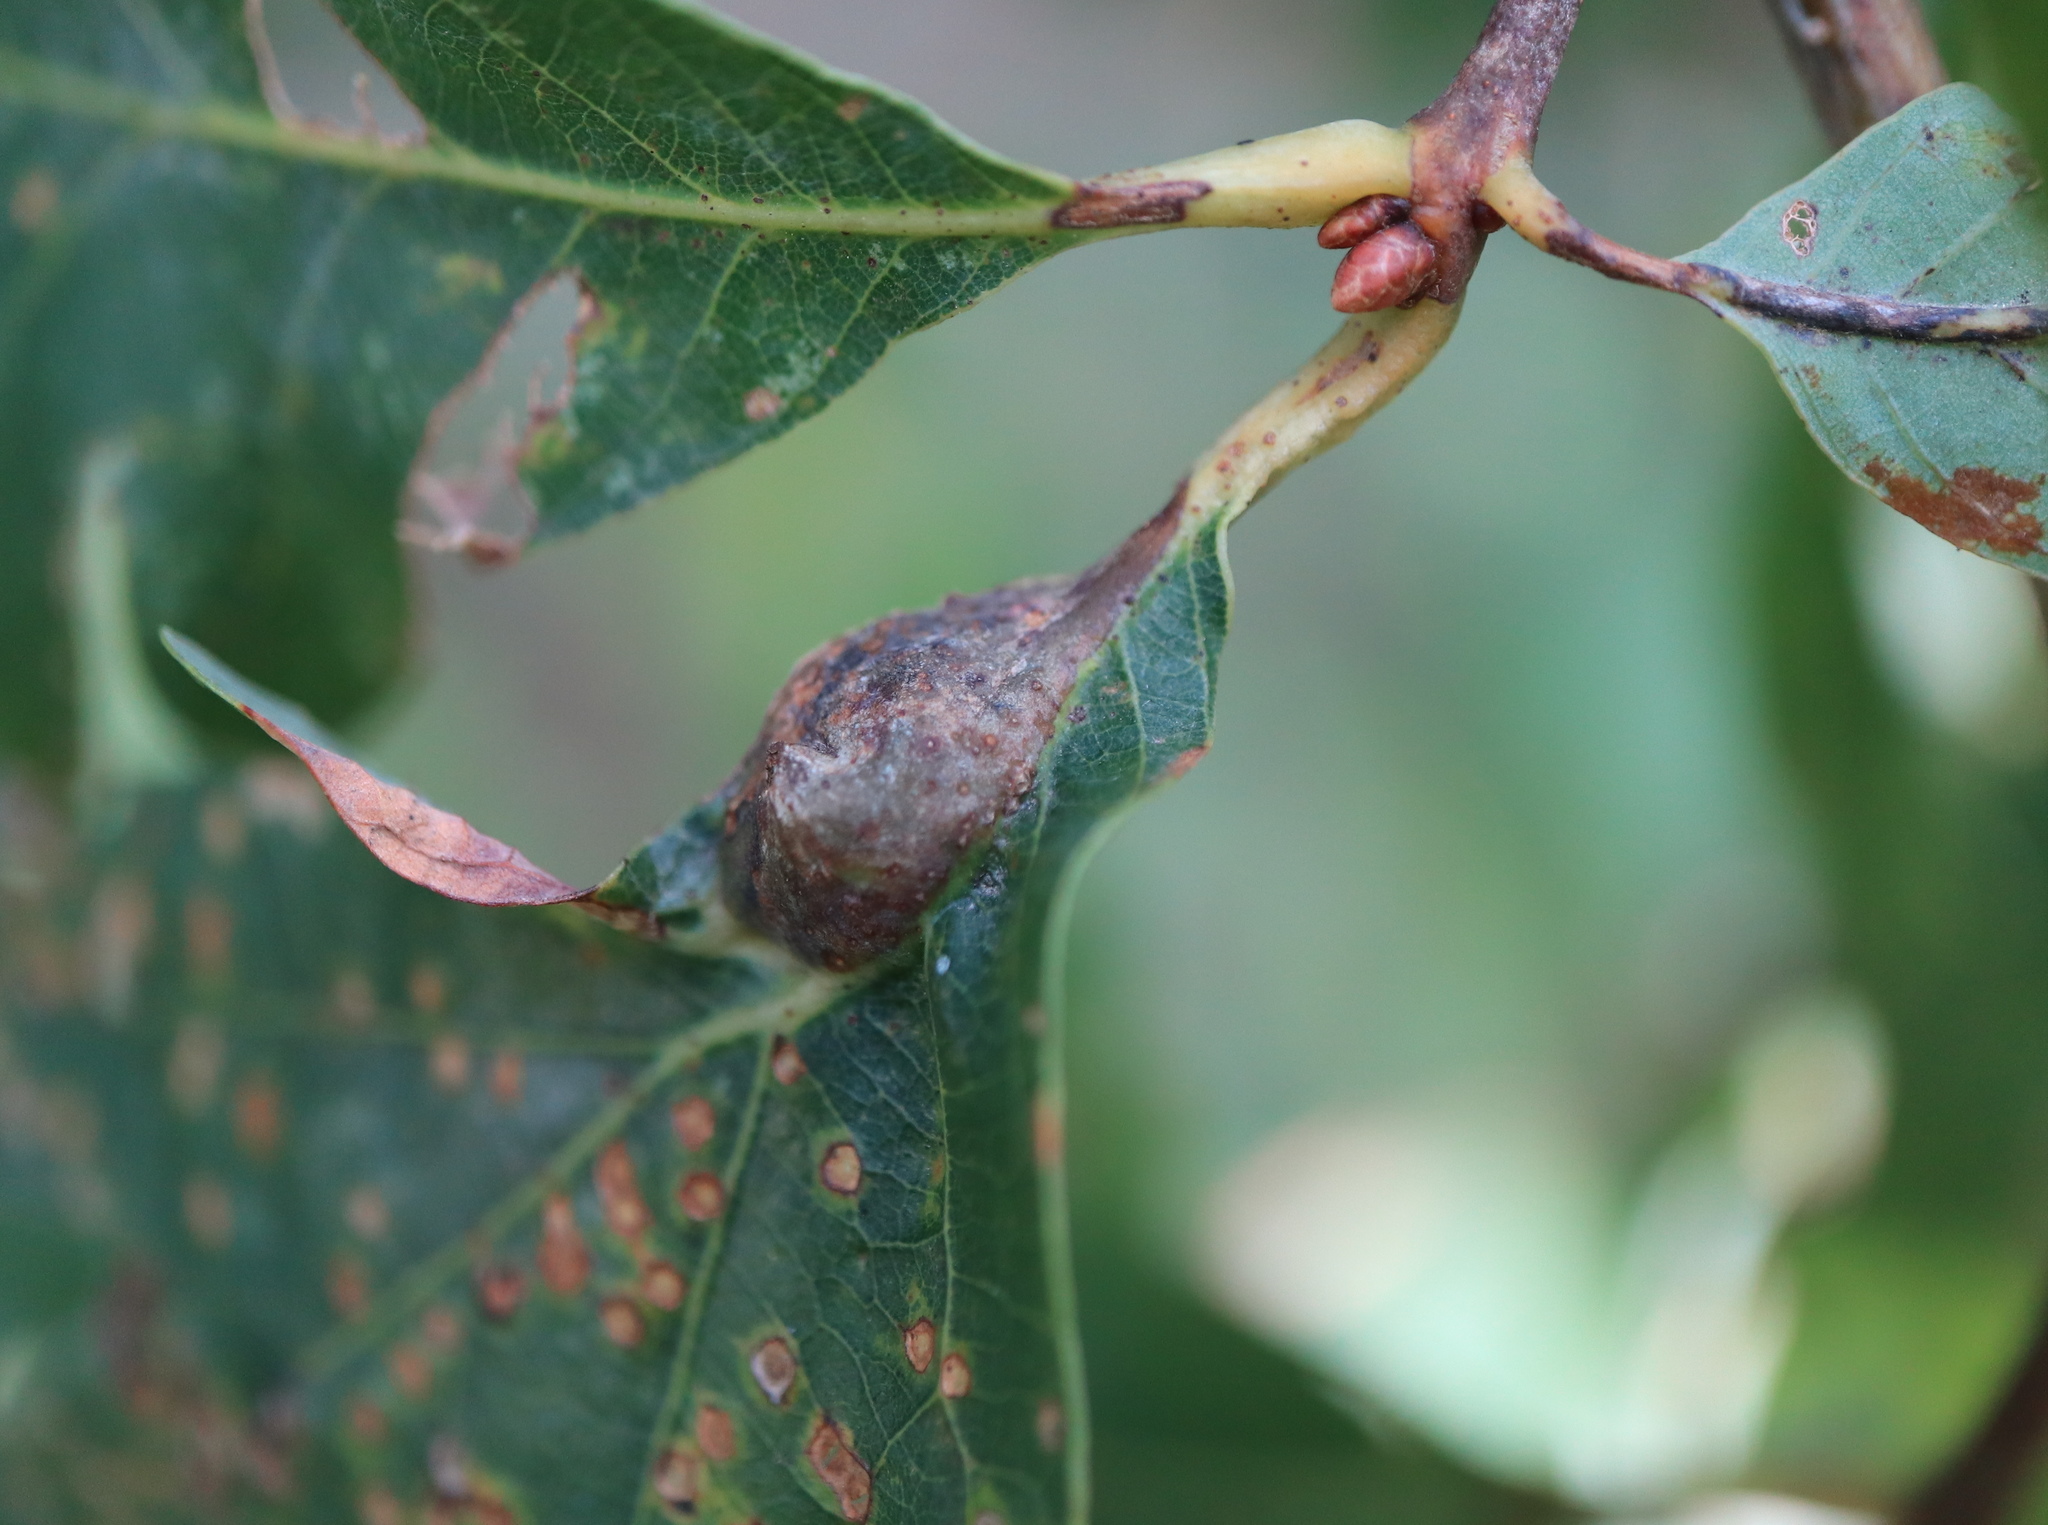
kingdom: Animalia
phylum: Arthropoda
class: Insecta
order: Hymenoptera
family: Cynipidae
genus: Andricus
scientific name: Andricus
